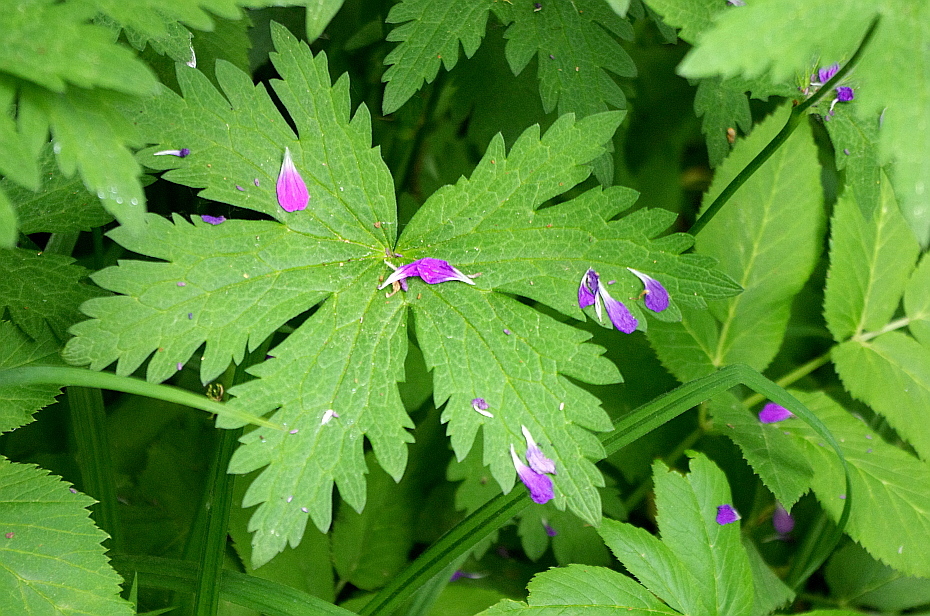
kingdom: Plantae
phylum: Tracheophyta
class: Magnoliopsida
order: Geraniales
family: Geraniaceae
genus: Geranium
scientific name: Geranium sylvaticum
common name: Wood crane's-bill
